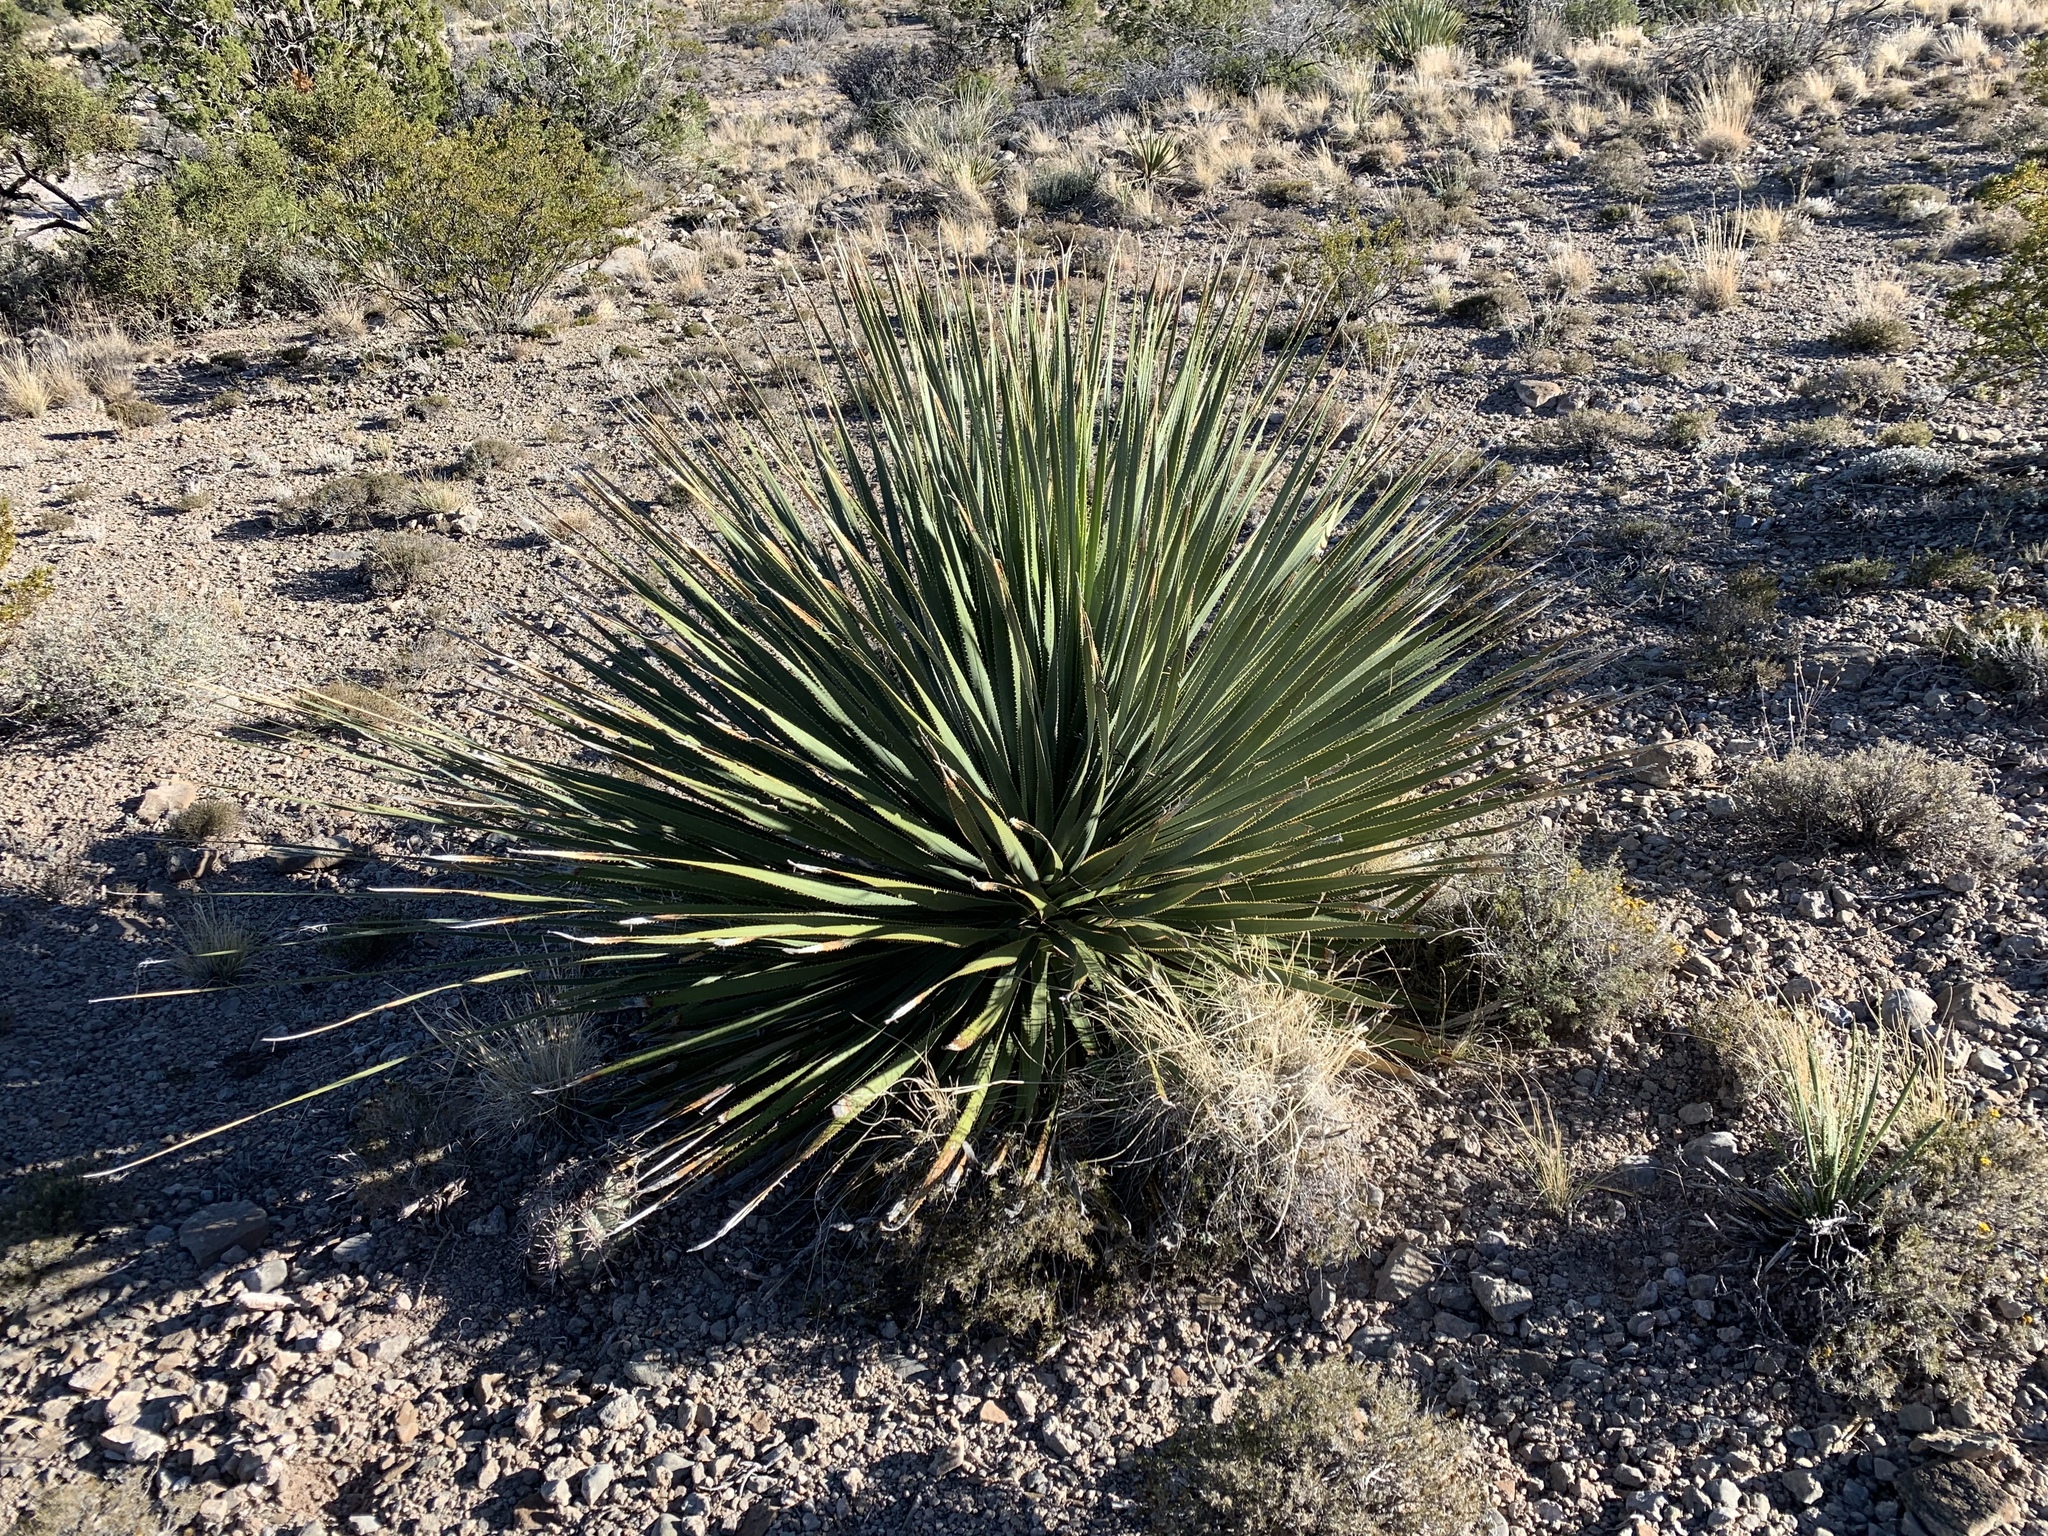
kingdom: Plantae
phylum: Tracheophyta
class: Liliopsida
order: Asparagales
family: Asparagaceae
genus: Dasylirion
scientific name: Dasylirion wheeleri
